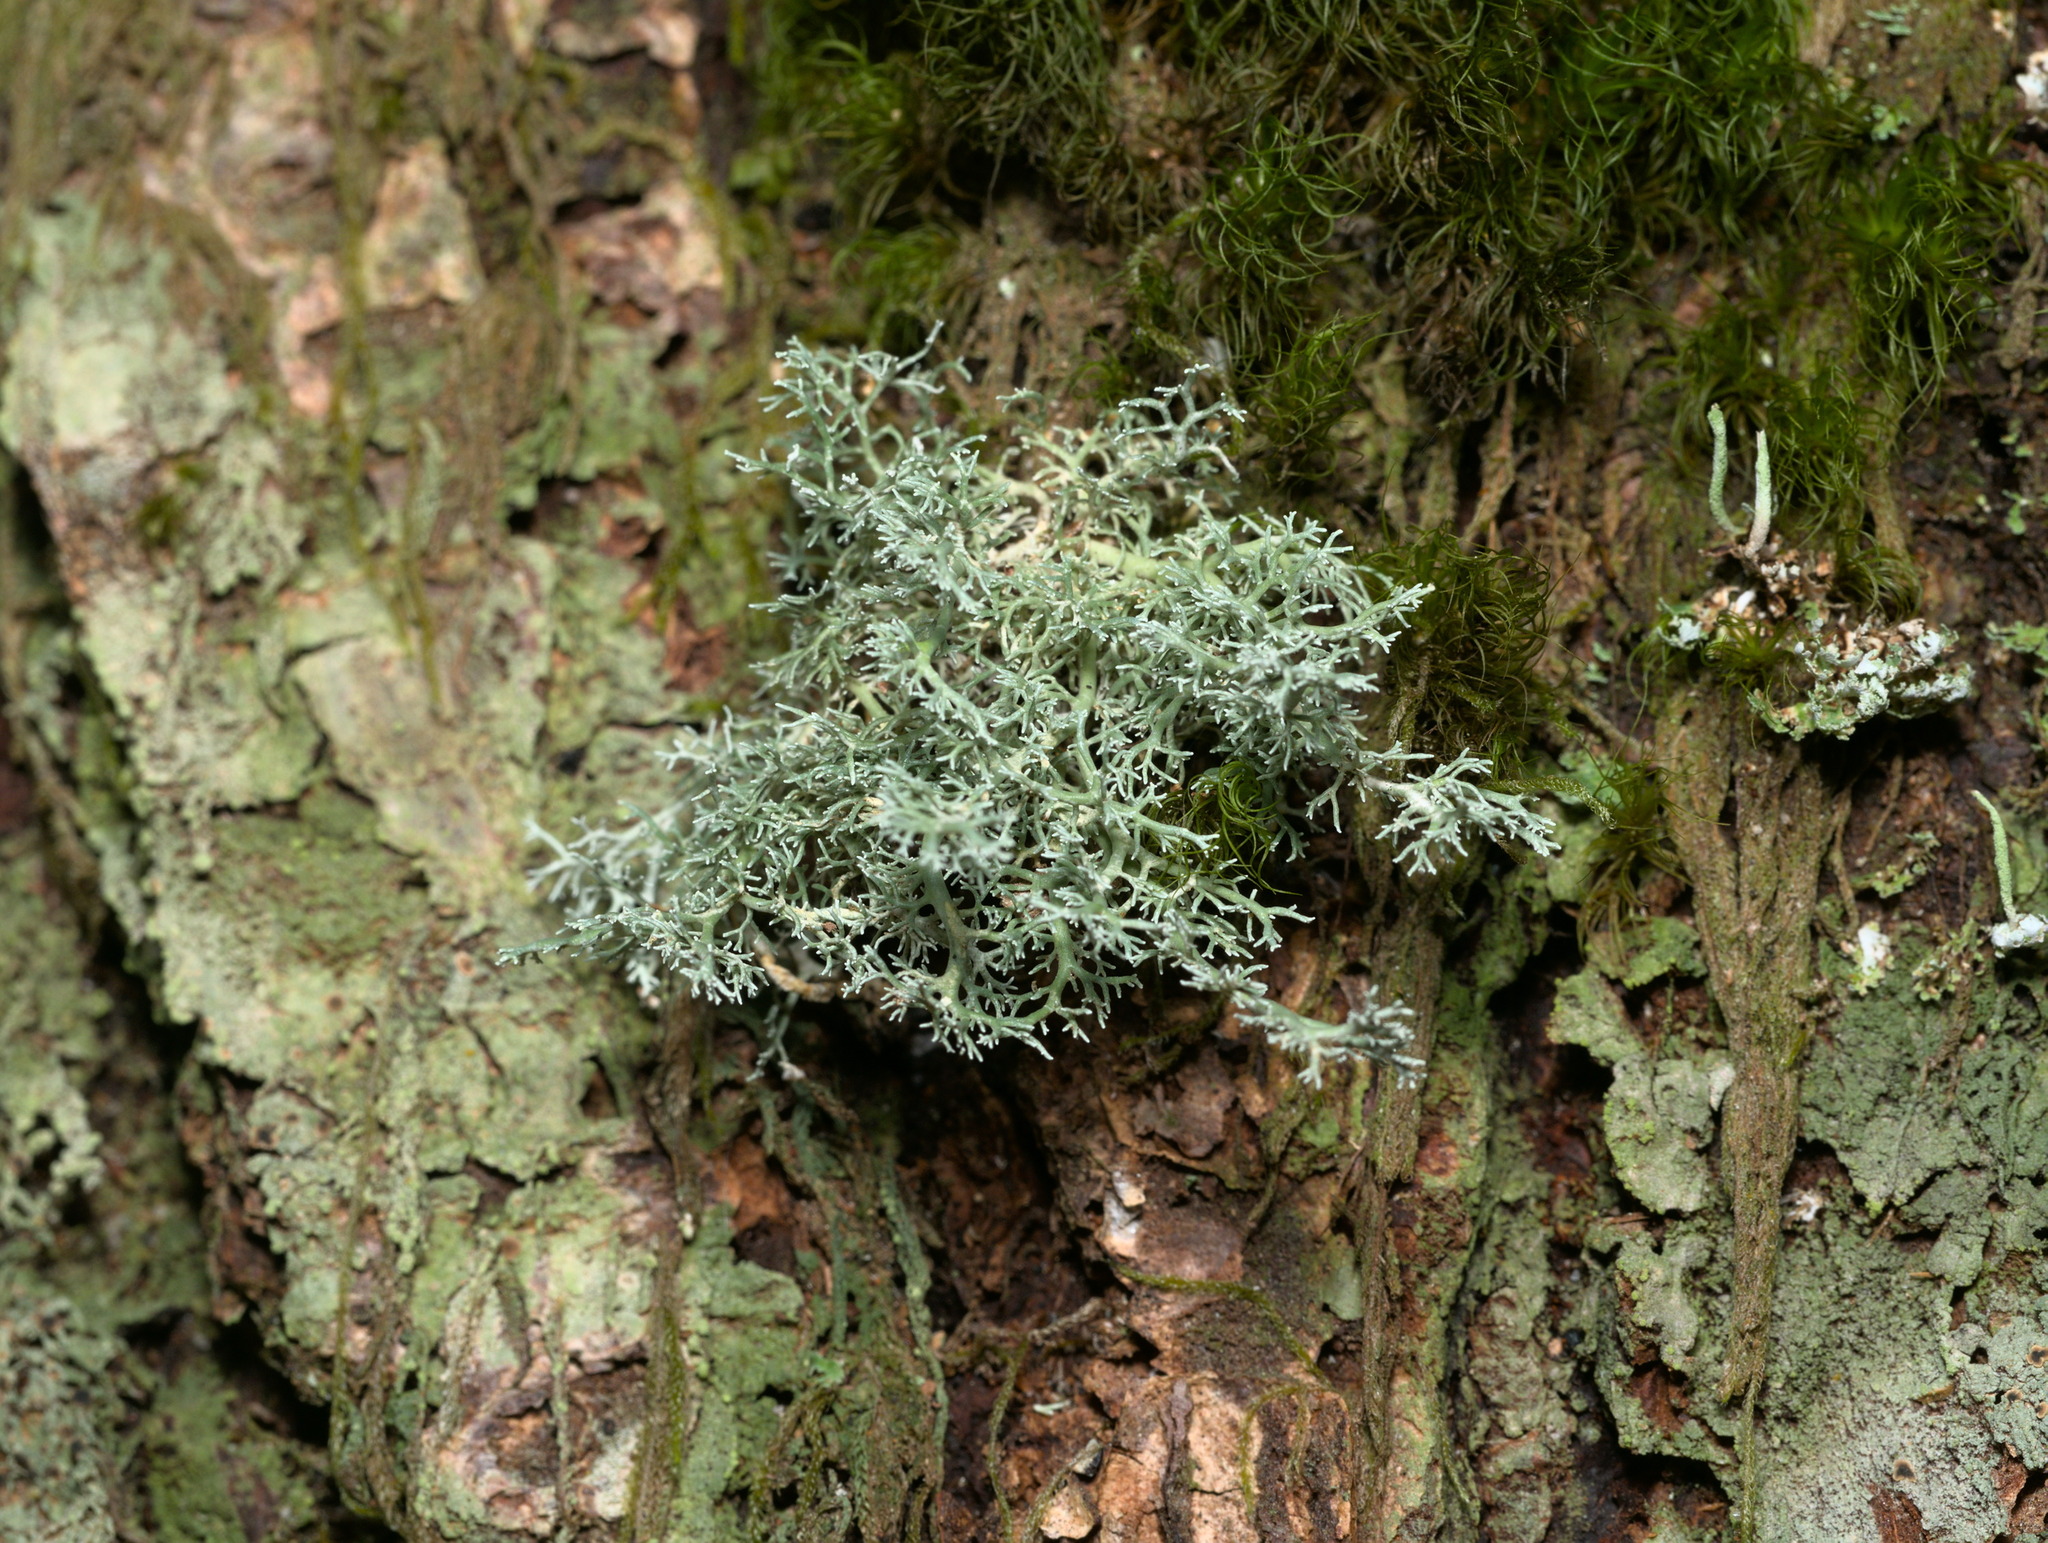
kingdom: Fungi
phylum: Ascomycota
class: Lecanoromycetes
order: Lecanorales
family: Sphaerophoraceae
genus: Sphaerophorus
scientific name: Sphaerophorus globosus
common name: Globe ball lichen
